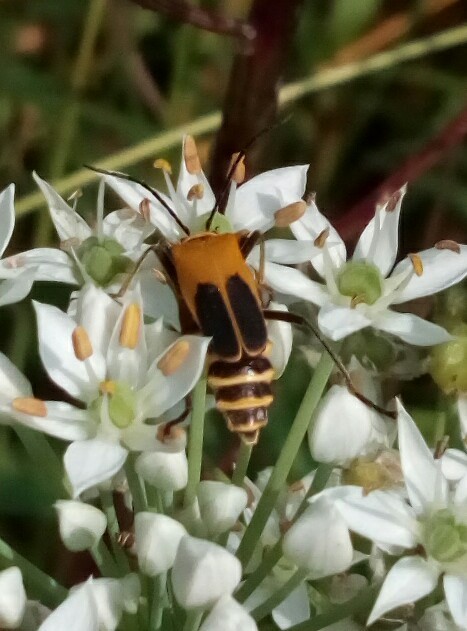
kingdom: Animalia
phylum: Arthropoda
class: Insecta
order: Coleoptera
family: Cantharidae
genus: Chauliognathus
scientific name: Chauliognathus pensylvanicus
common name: Goldenrod soldier beetle
